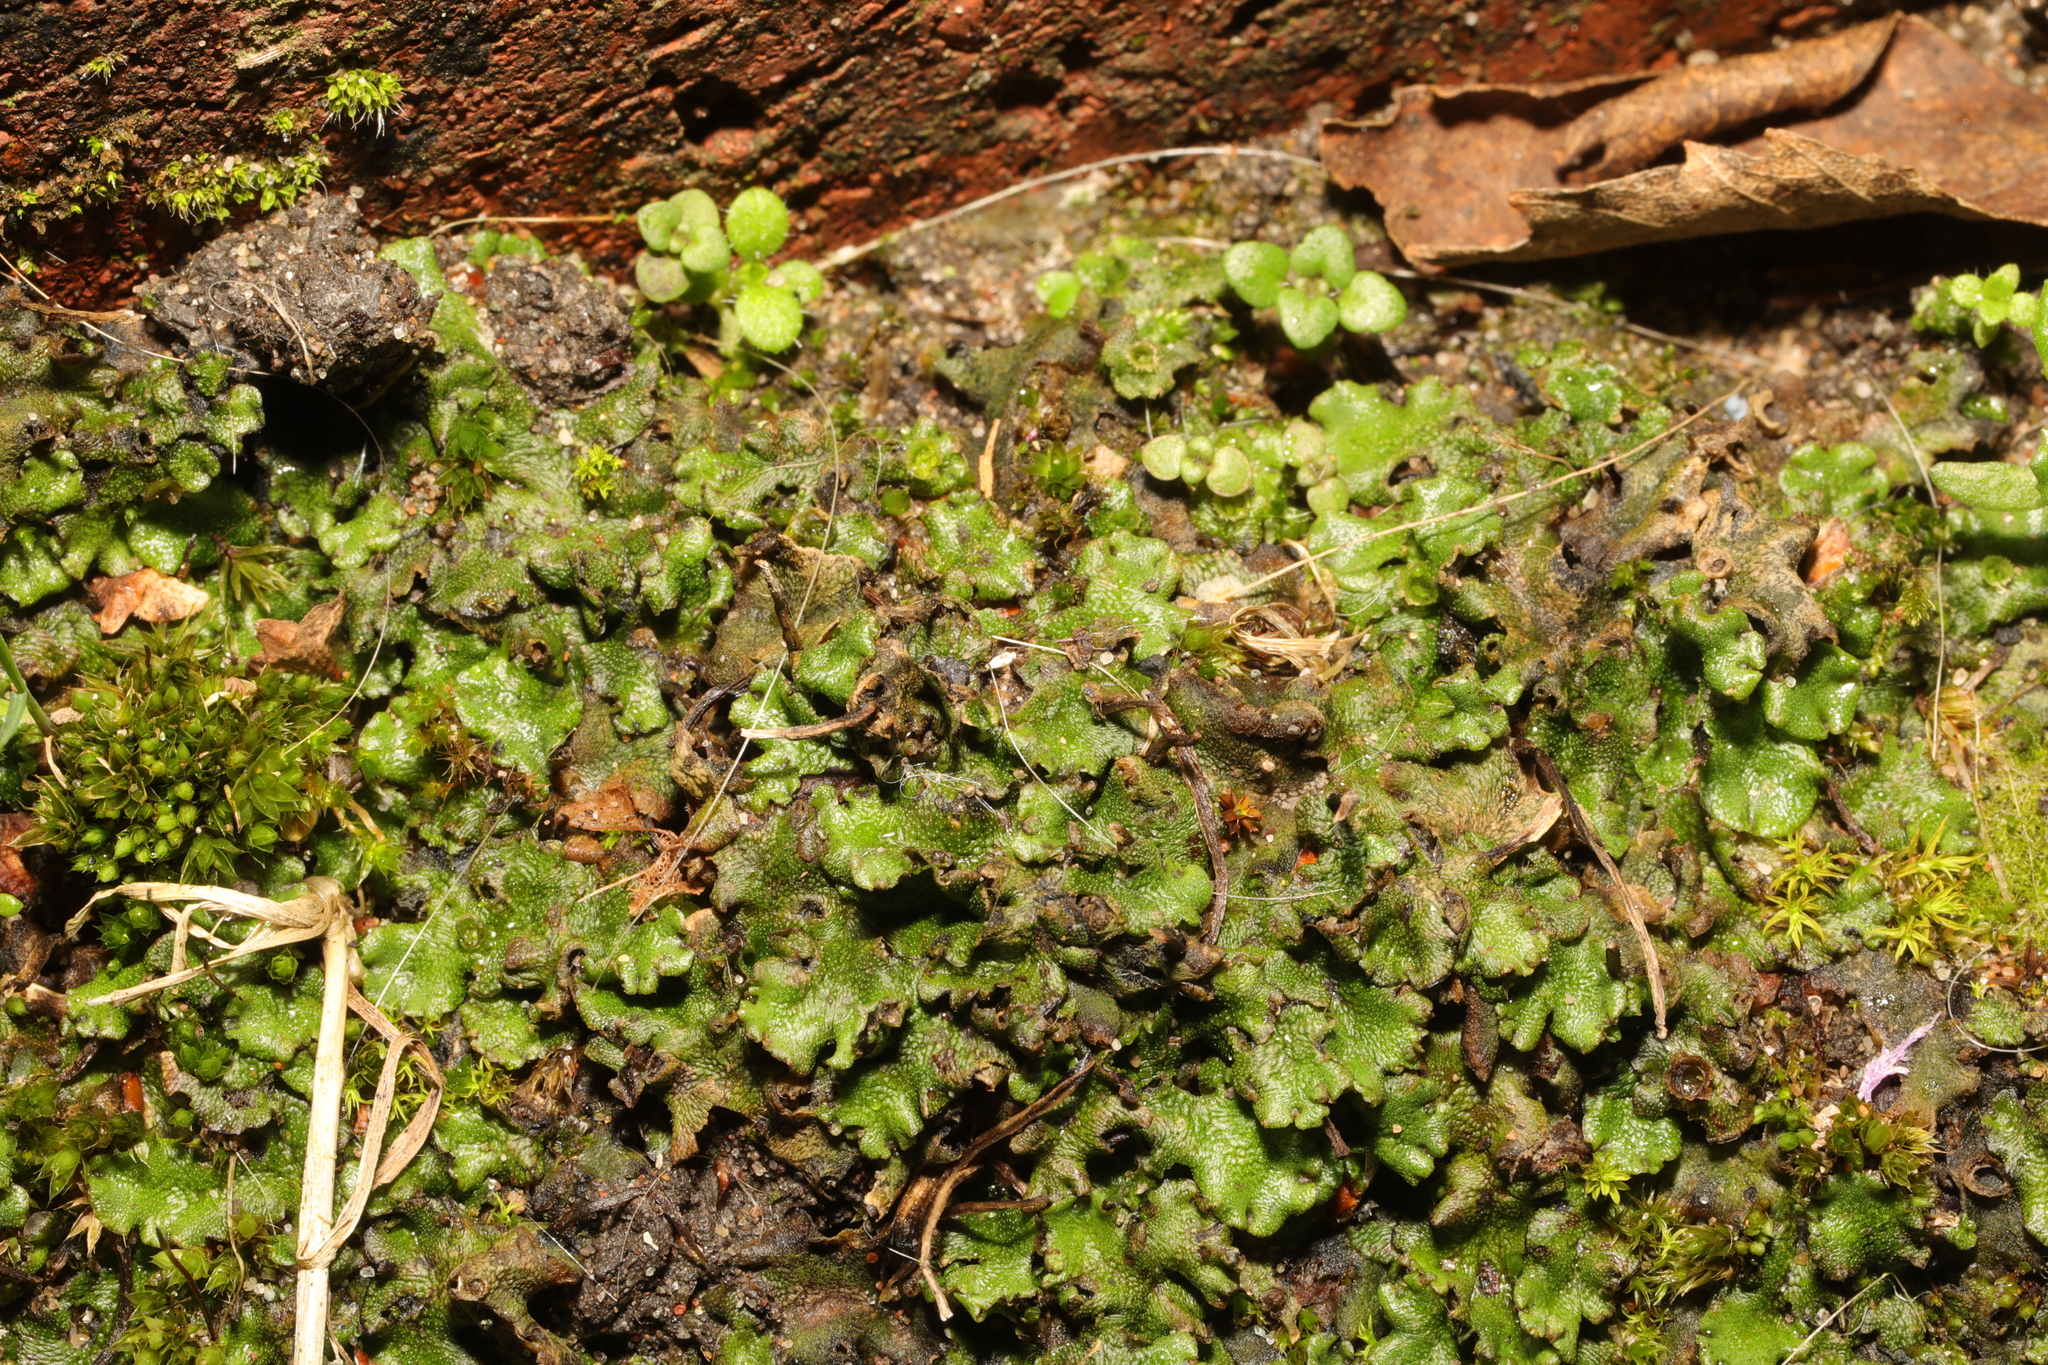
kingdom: Plantae
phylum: Marchantiophyta
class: Marchantiopsida
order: Marchantiales
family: Marchantiaceae
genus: Marchantia
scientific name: Marchantia polymorpha
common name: Common liverwort
